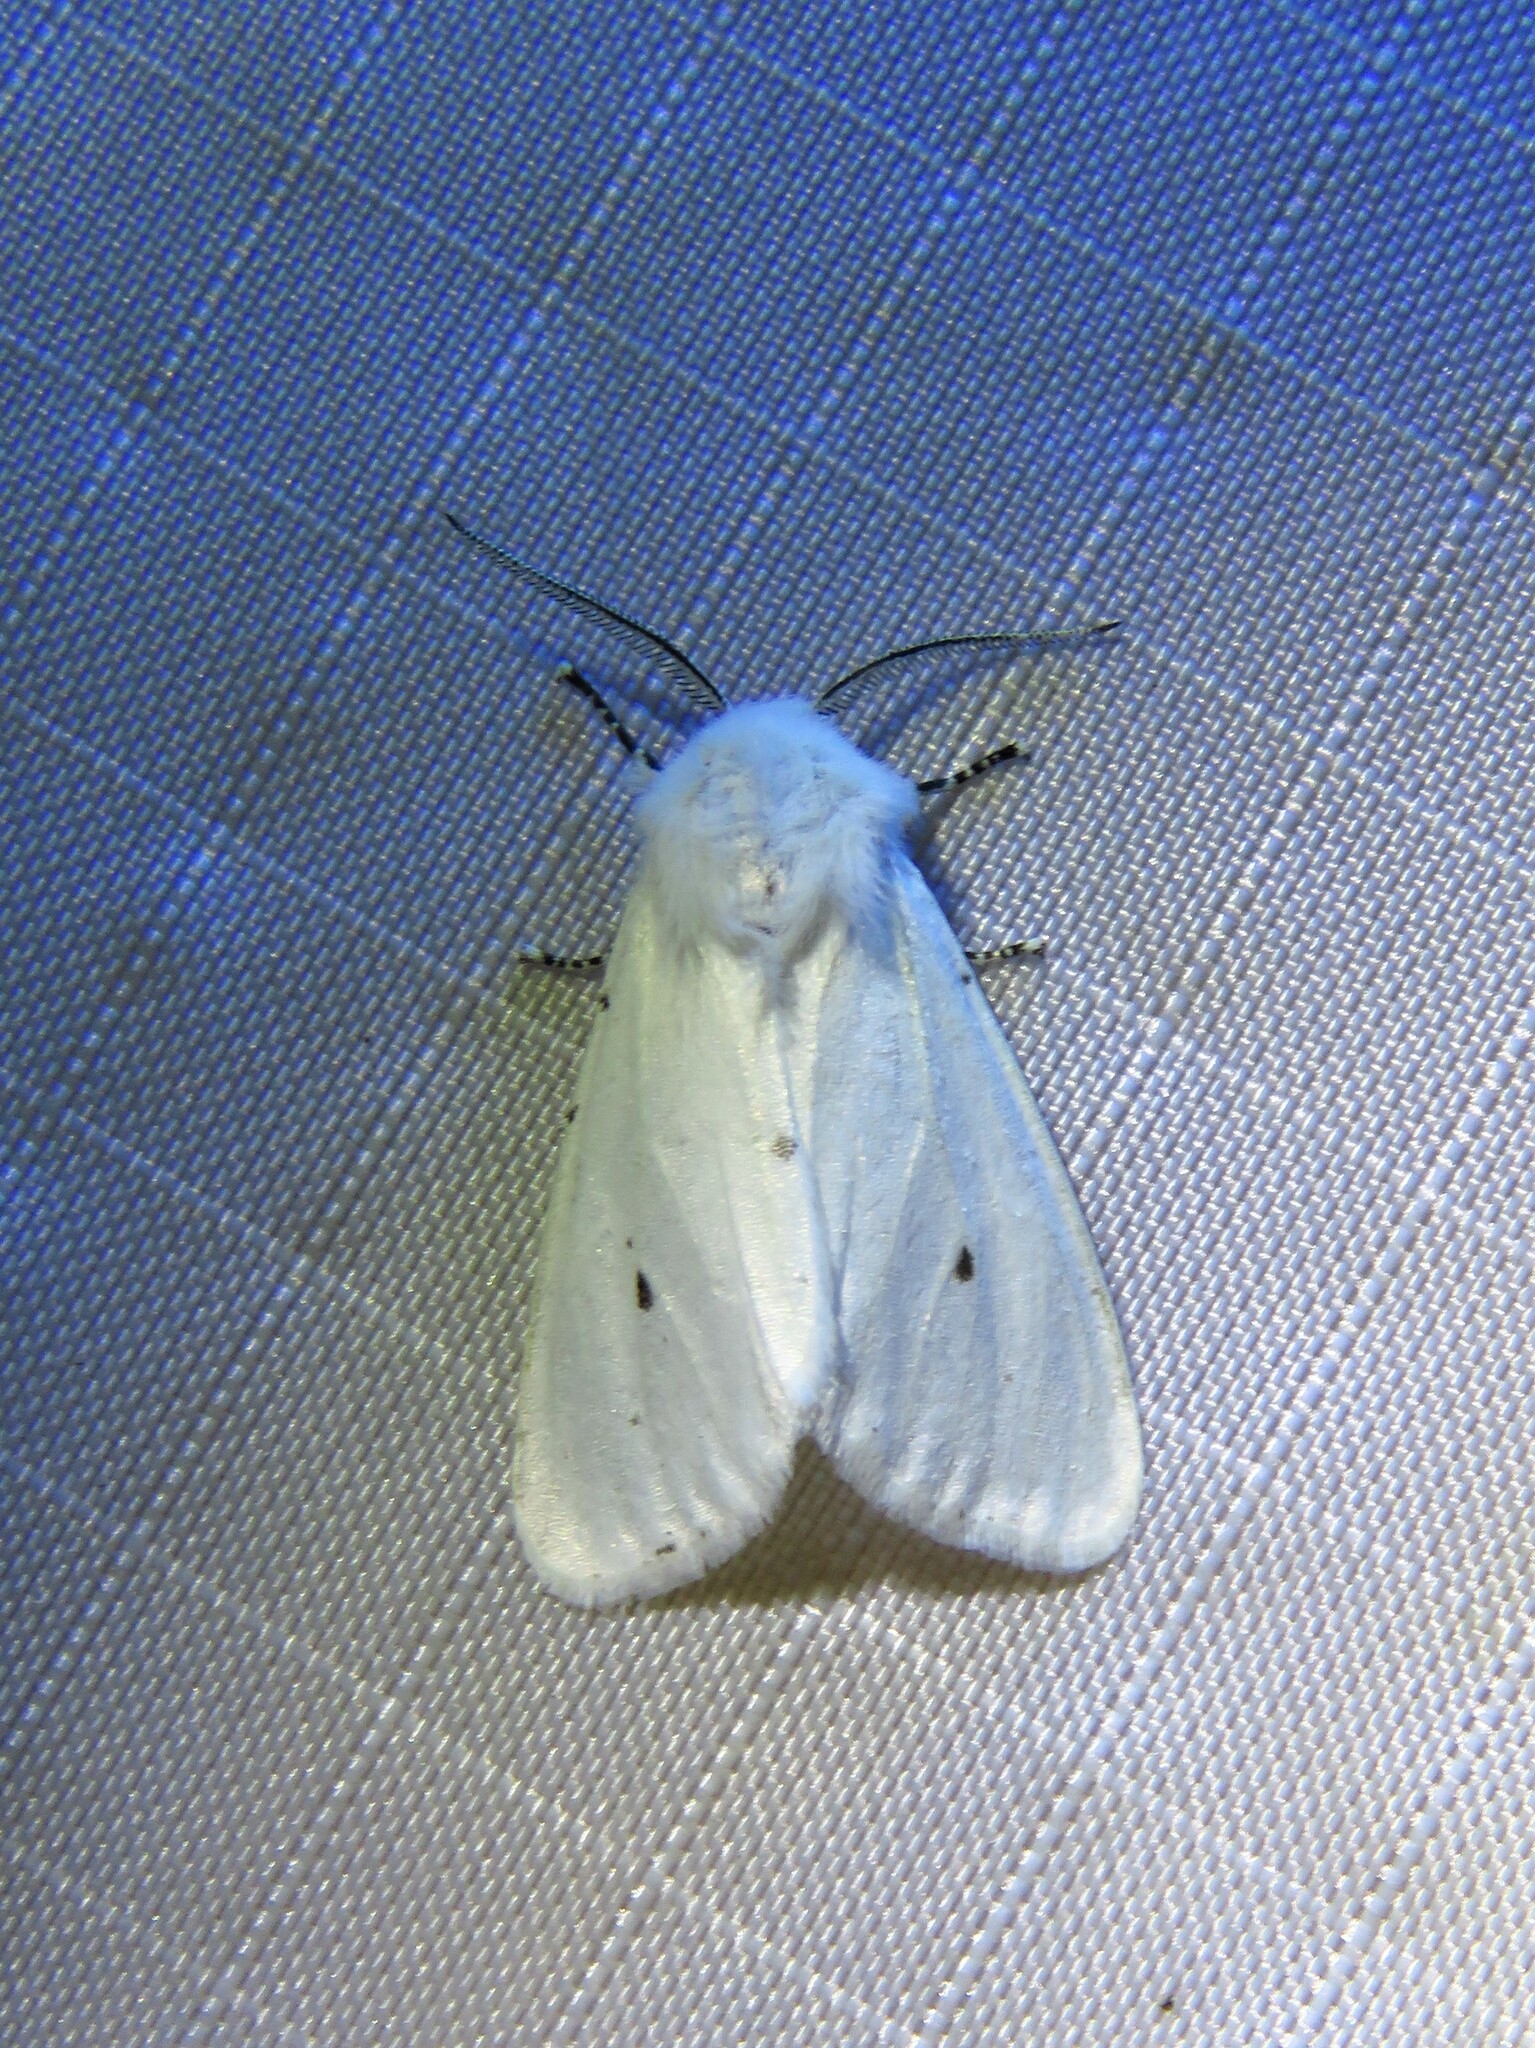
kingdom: Animalia
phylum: Arthropoda
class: Insecta
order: Lepidoptera
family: Erebidae
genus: Hyphantria
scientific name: Hyphantria cunea
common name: American white moth
